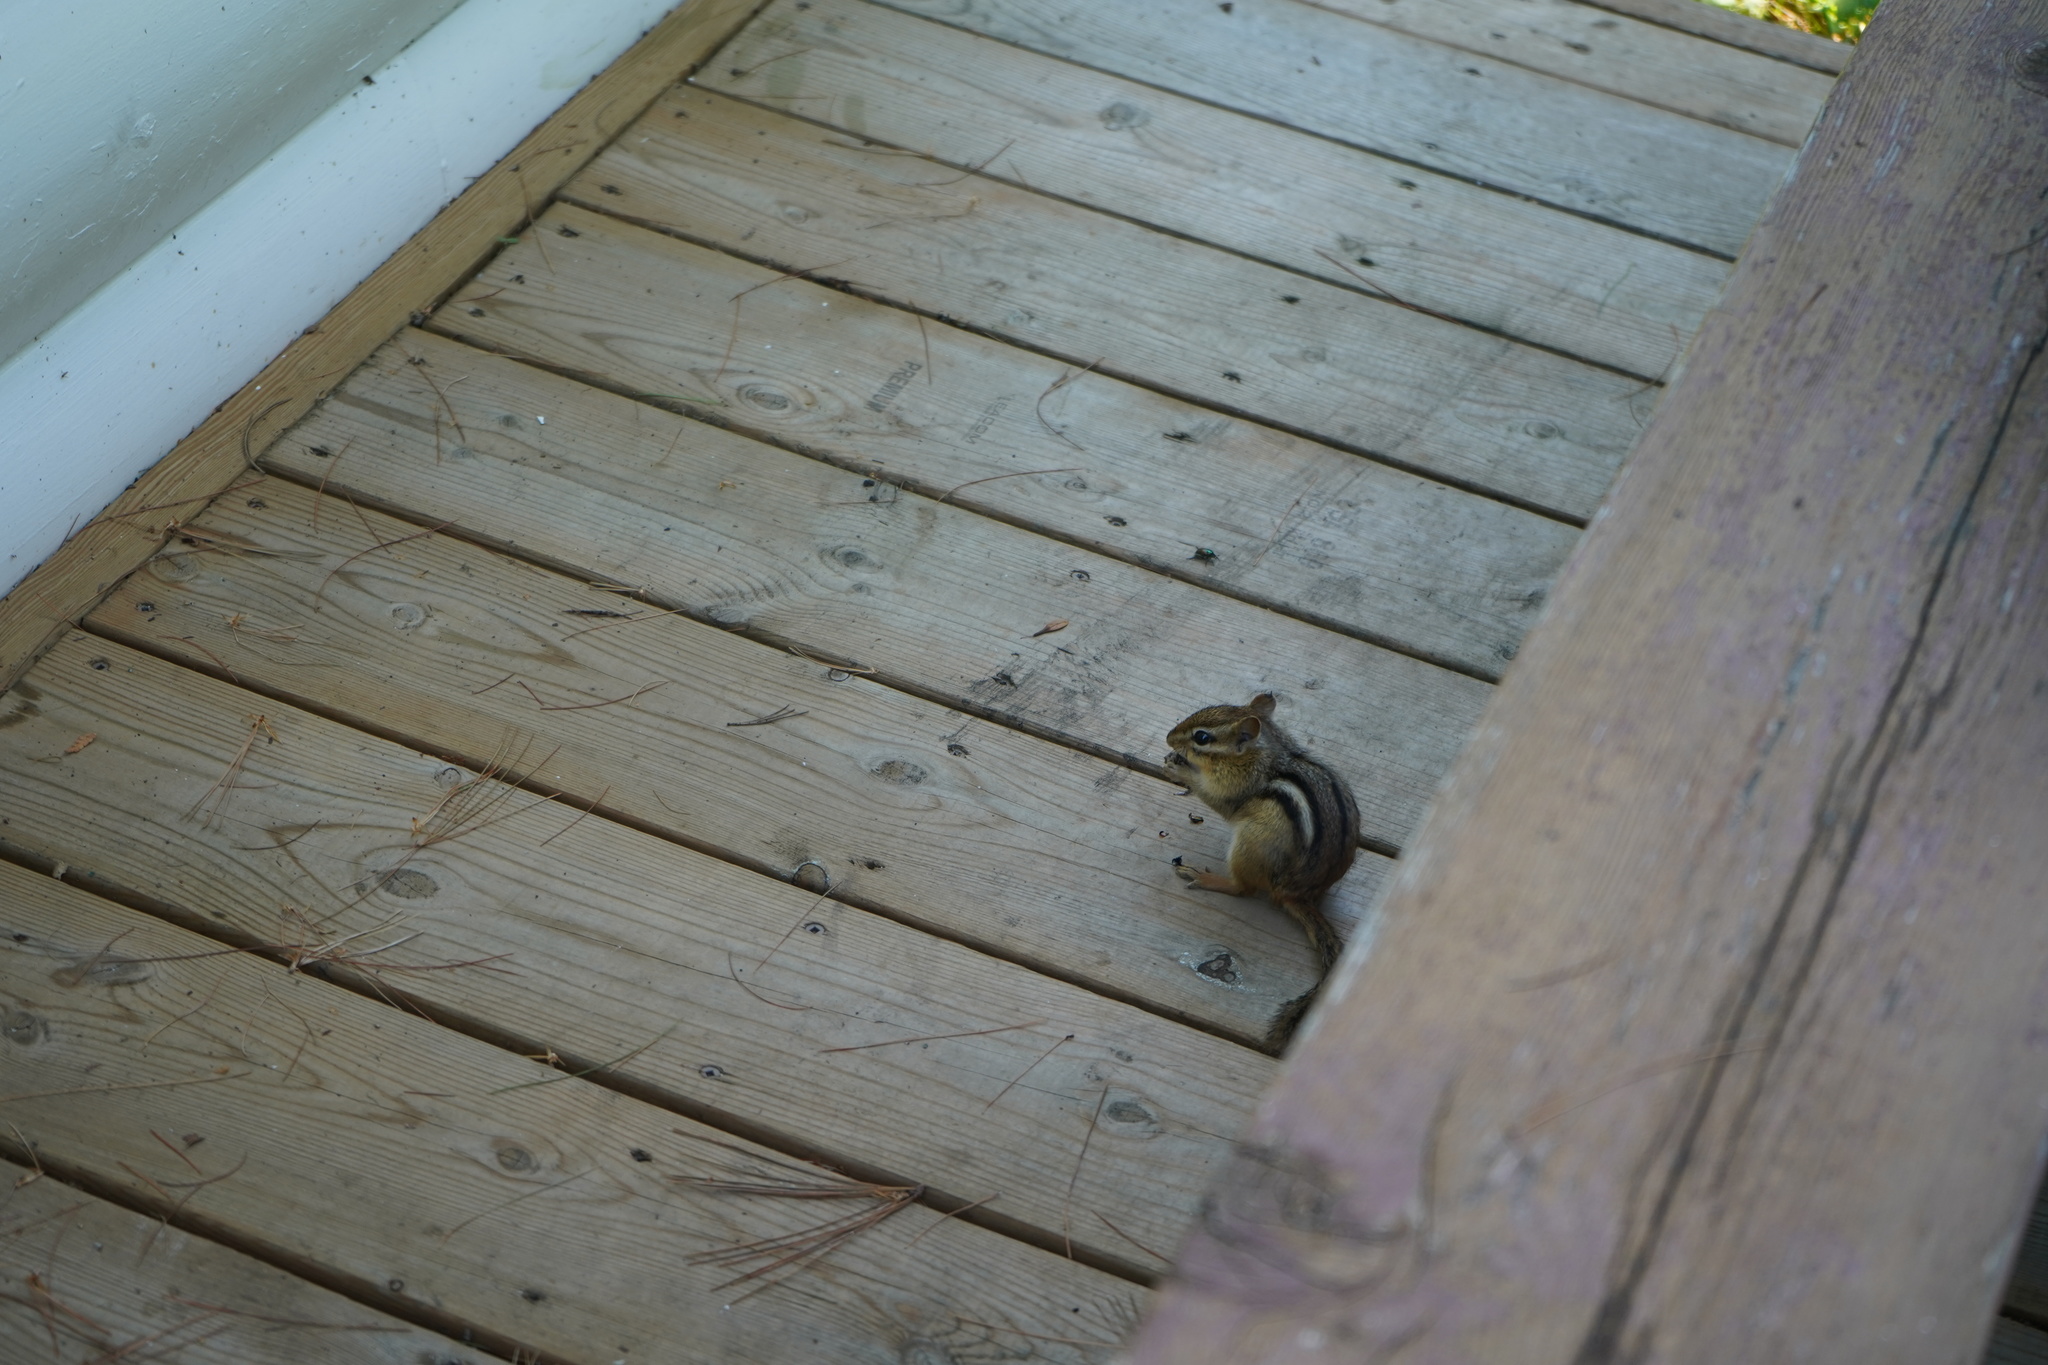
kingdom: Animalia
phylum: Chordata
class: Mammalia
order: Rodentia
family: Sciuridae
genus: Tamias
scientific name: Tamias striatus
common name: Eastern chipmunk
